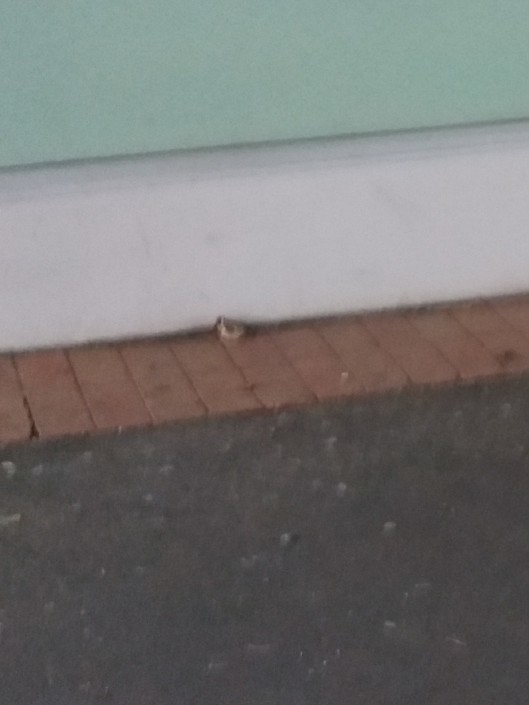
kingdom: Animalia
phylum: Chordata
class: Aves
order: Passeriformes
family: Fringillidae
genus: Carduelis
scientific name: Carduelis carduelis
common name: European goldfinch
